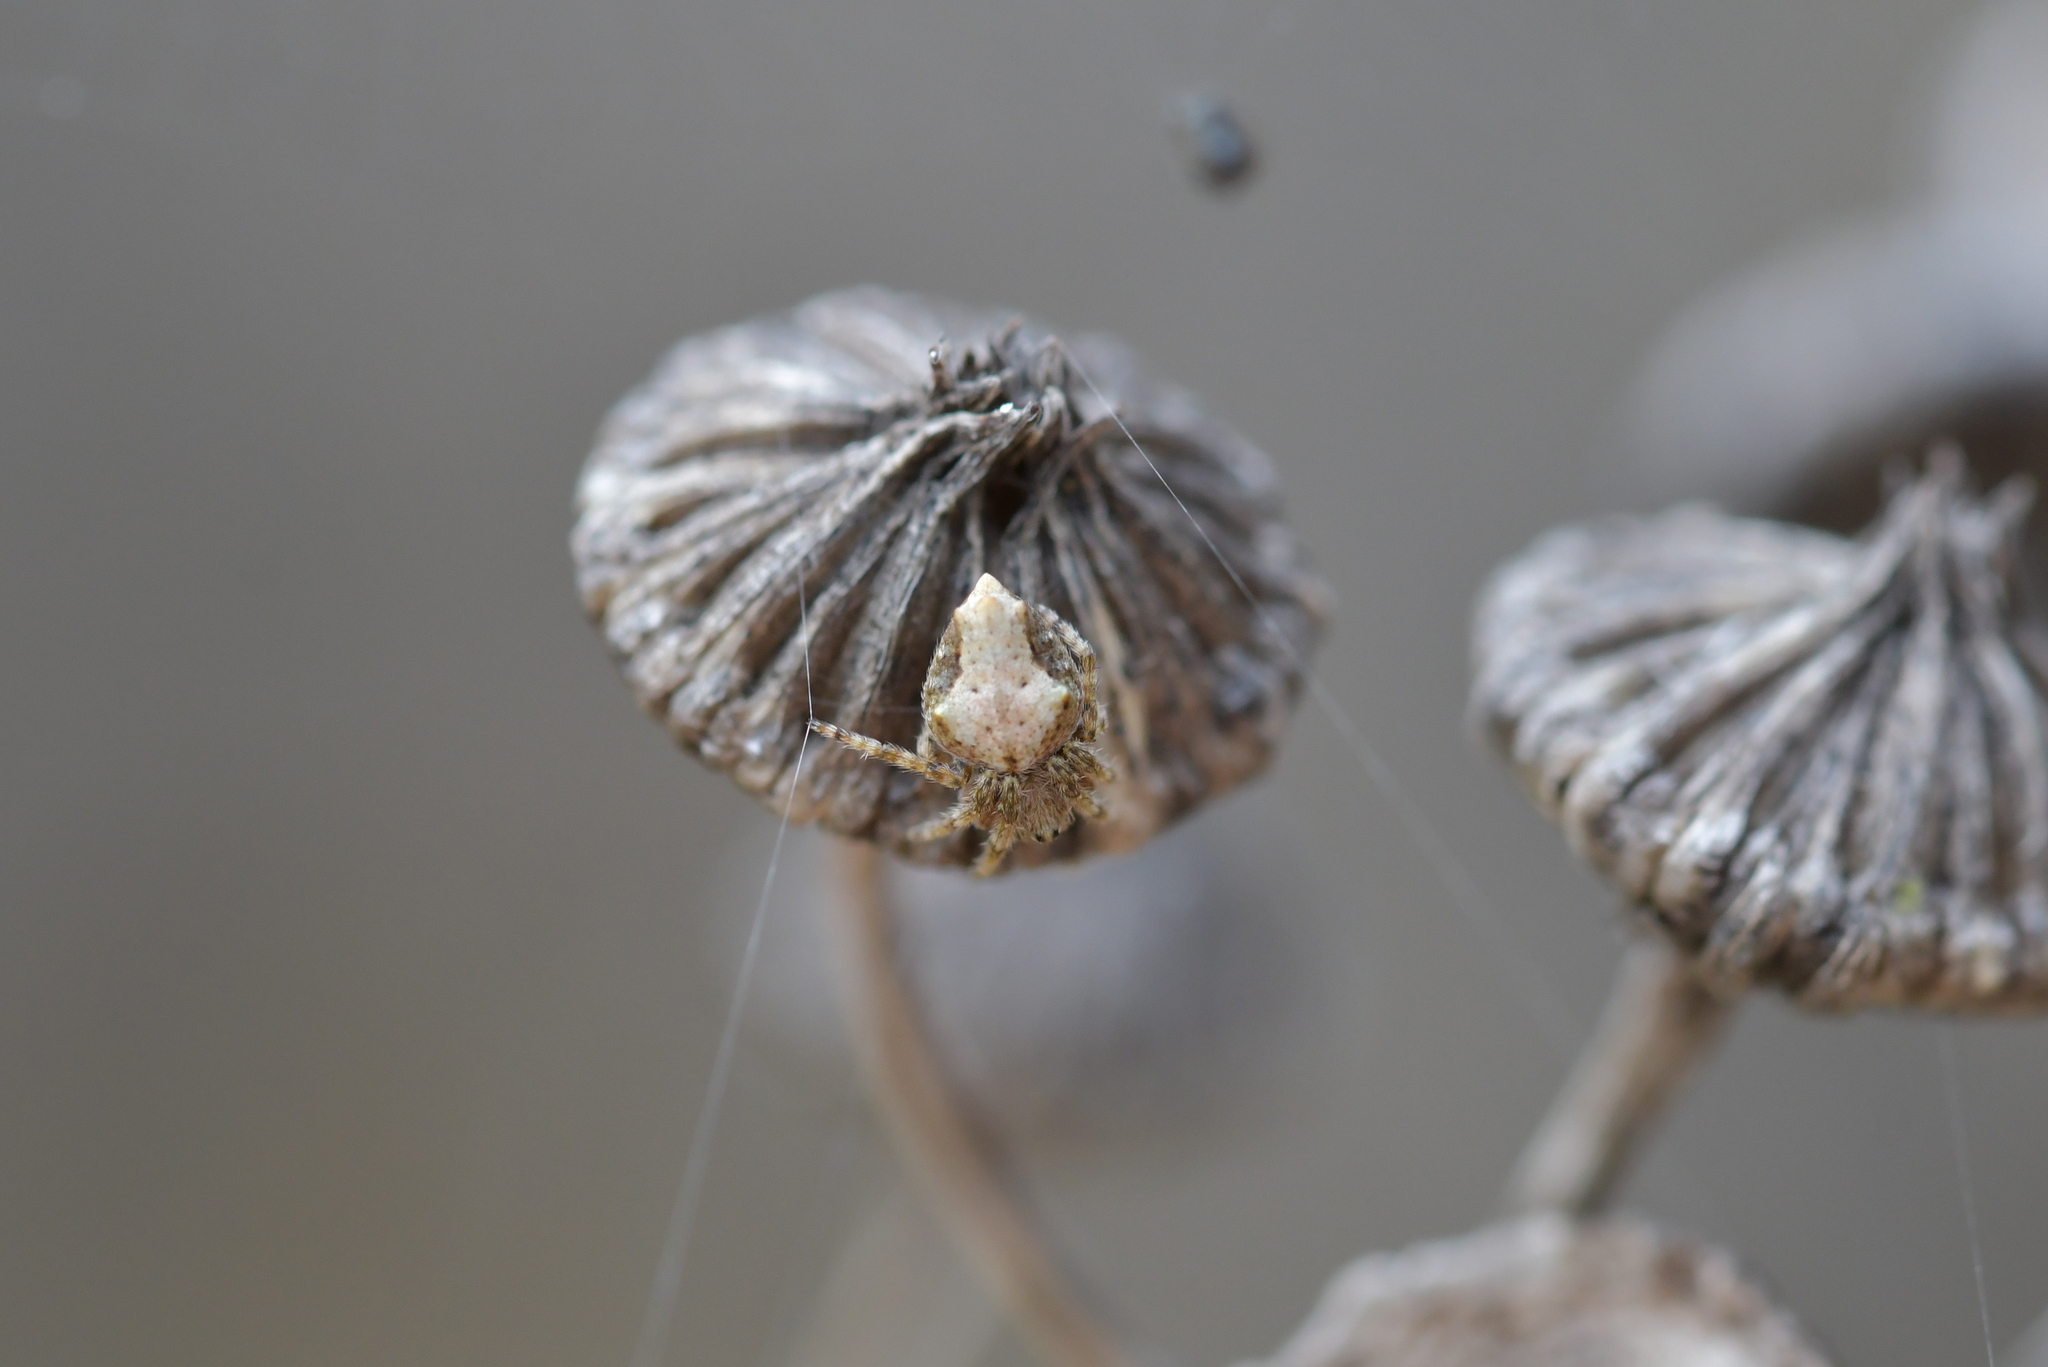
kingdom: Animalia
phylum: Arthropoda
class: Arachnida
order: Araneae
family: Araneidae
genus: Eriophora
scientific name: Eriophora pustulosa
